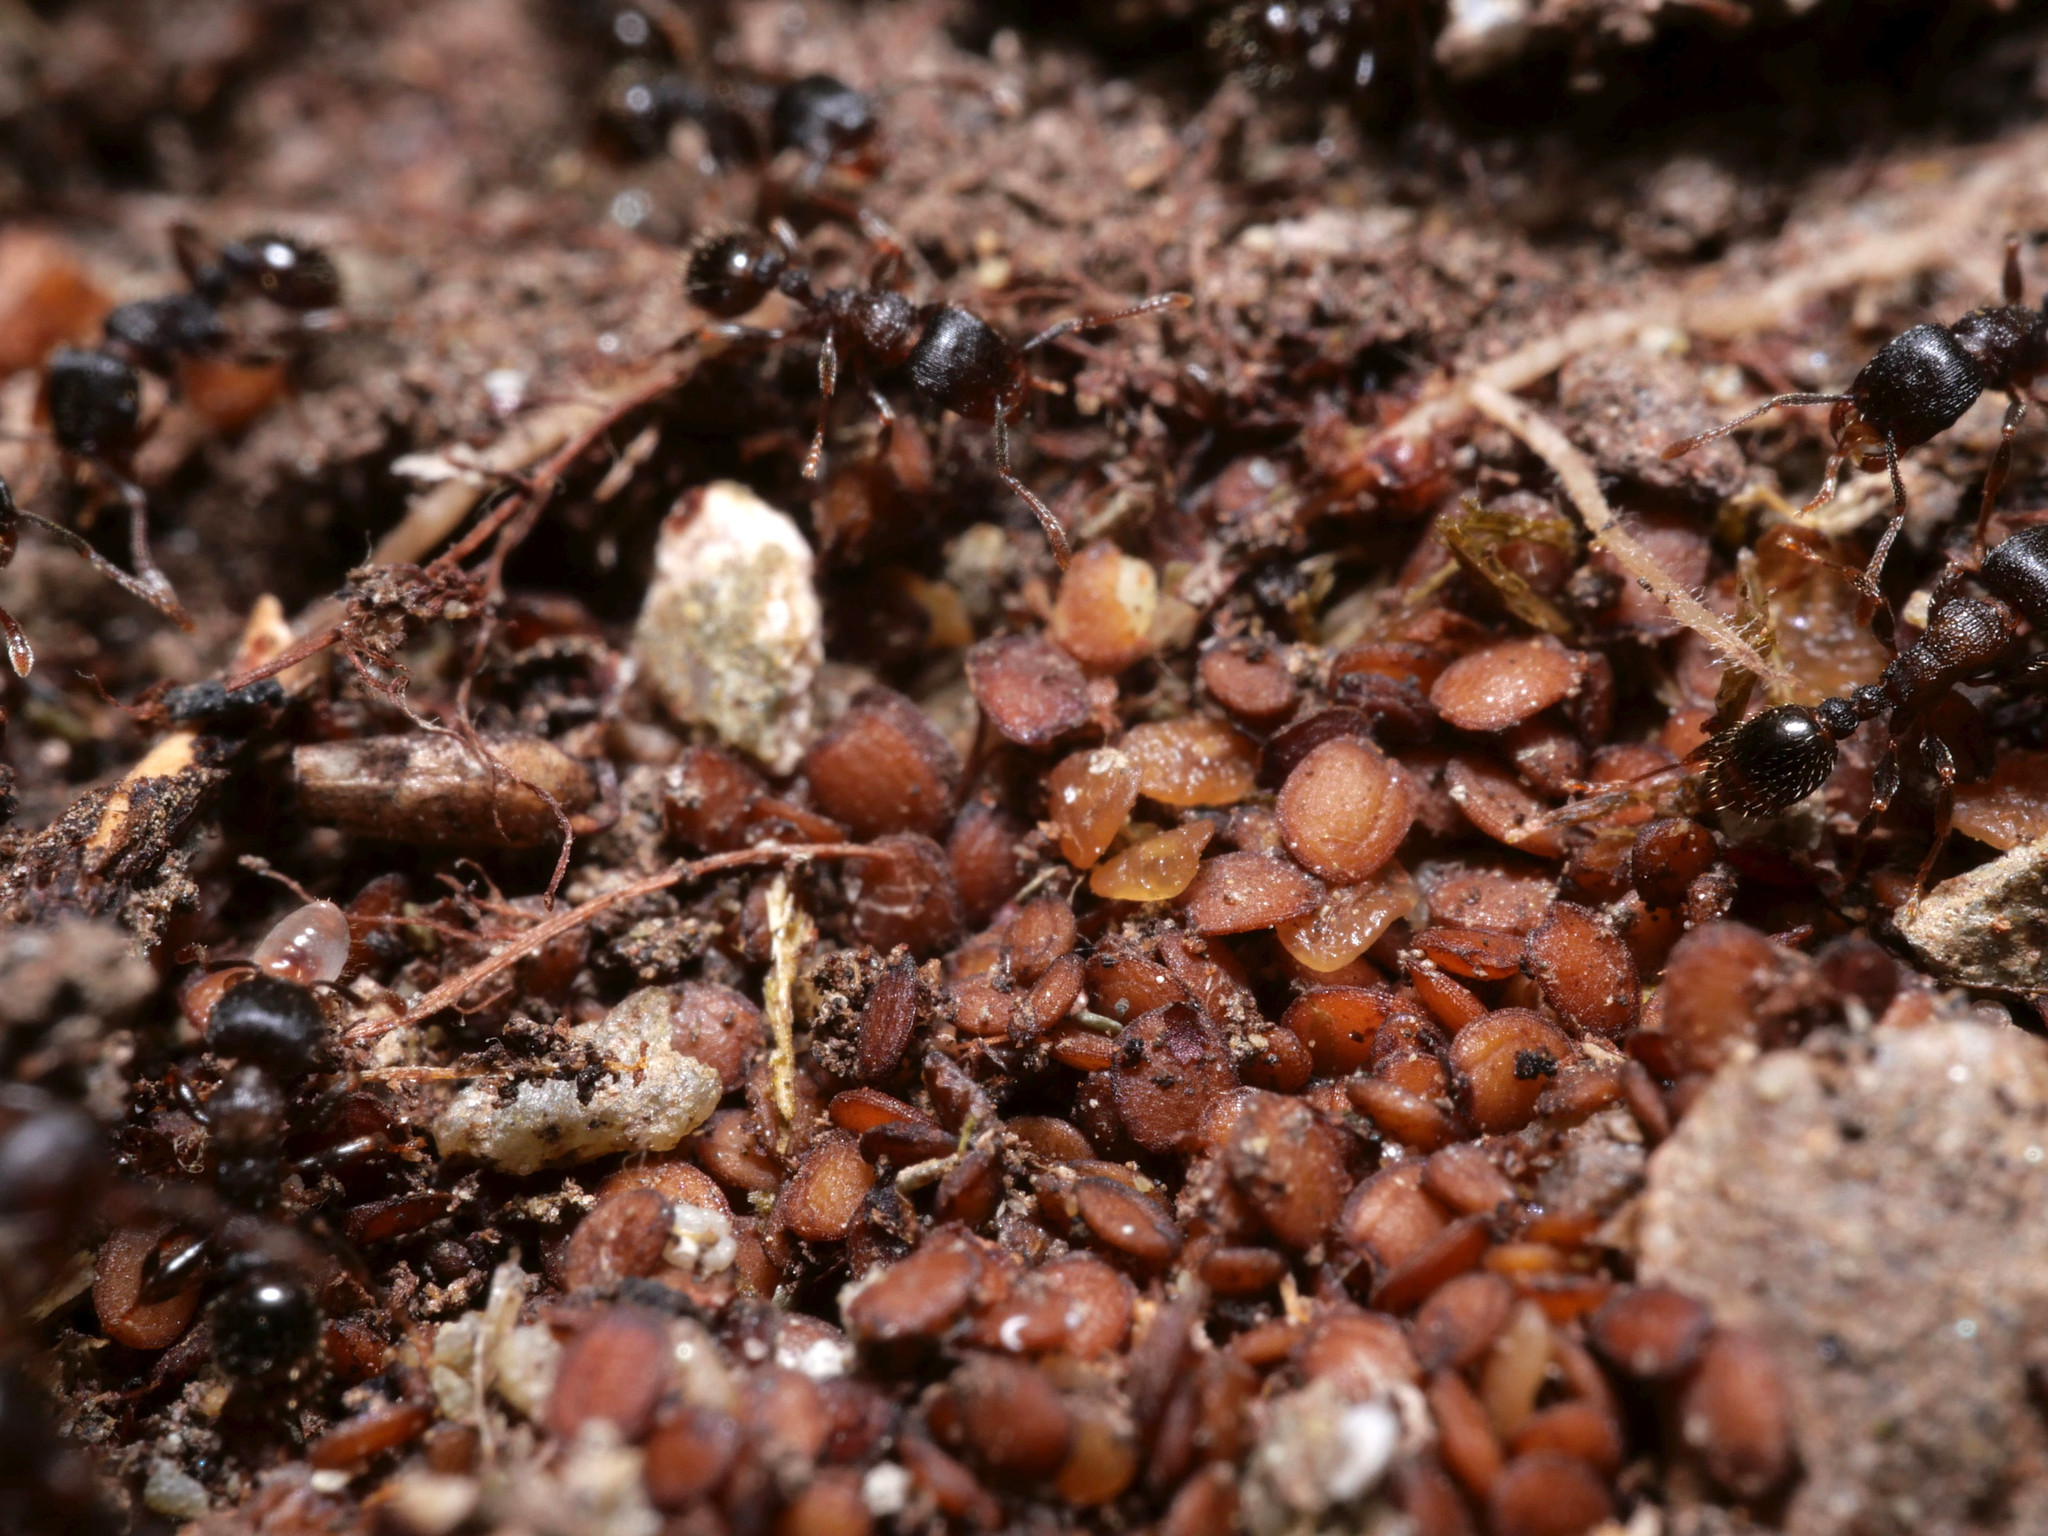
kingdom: Animalia
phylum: Arthropoda
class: Insecta
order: Hymenoptera
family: Formicidae
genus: Tetramorium
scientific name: Tetramorium moravicum
